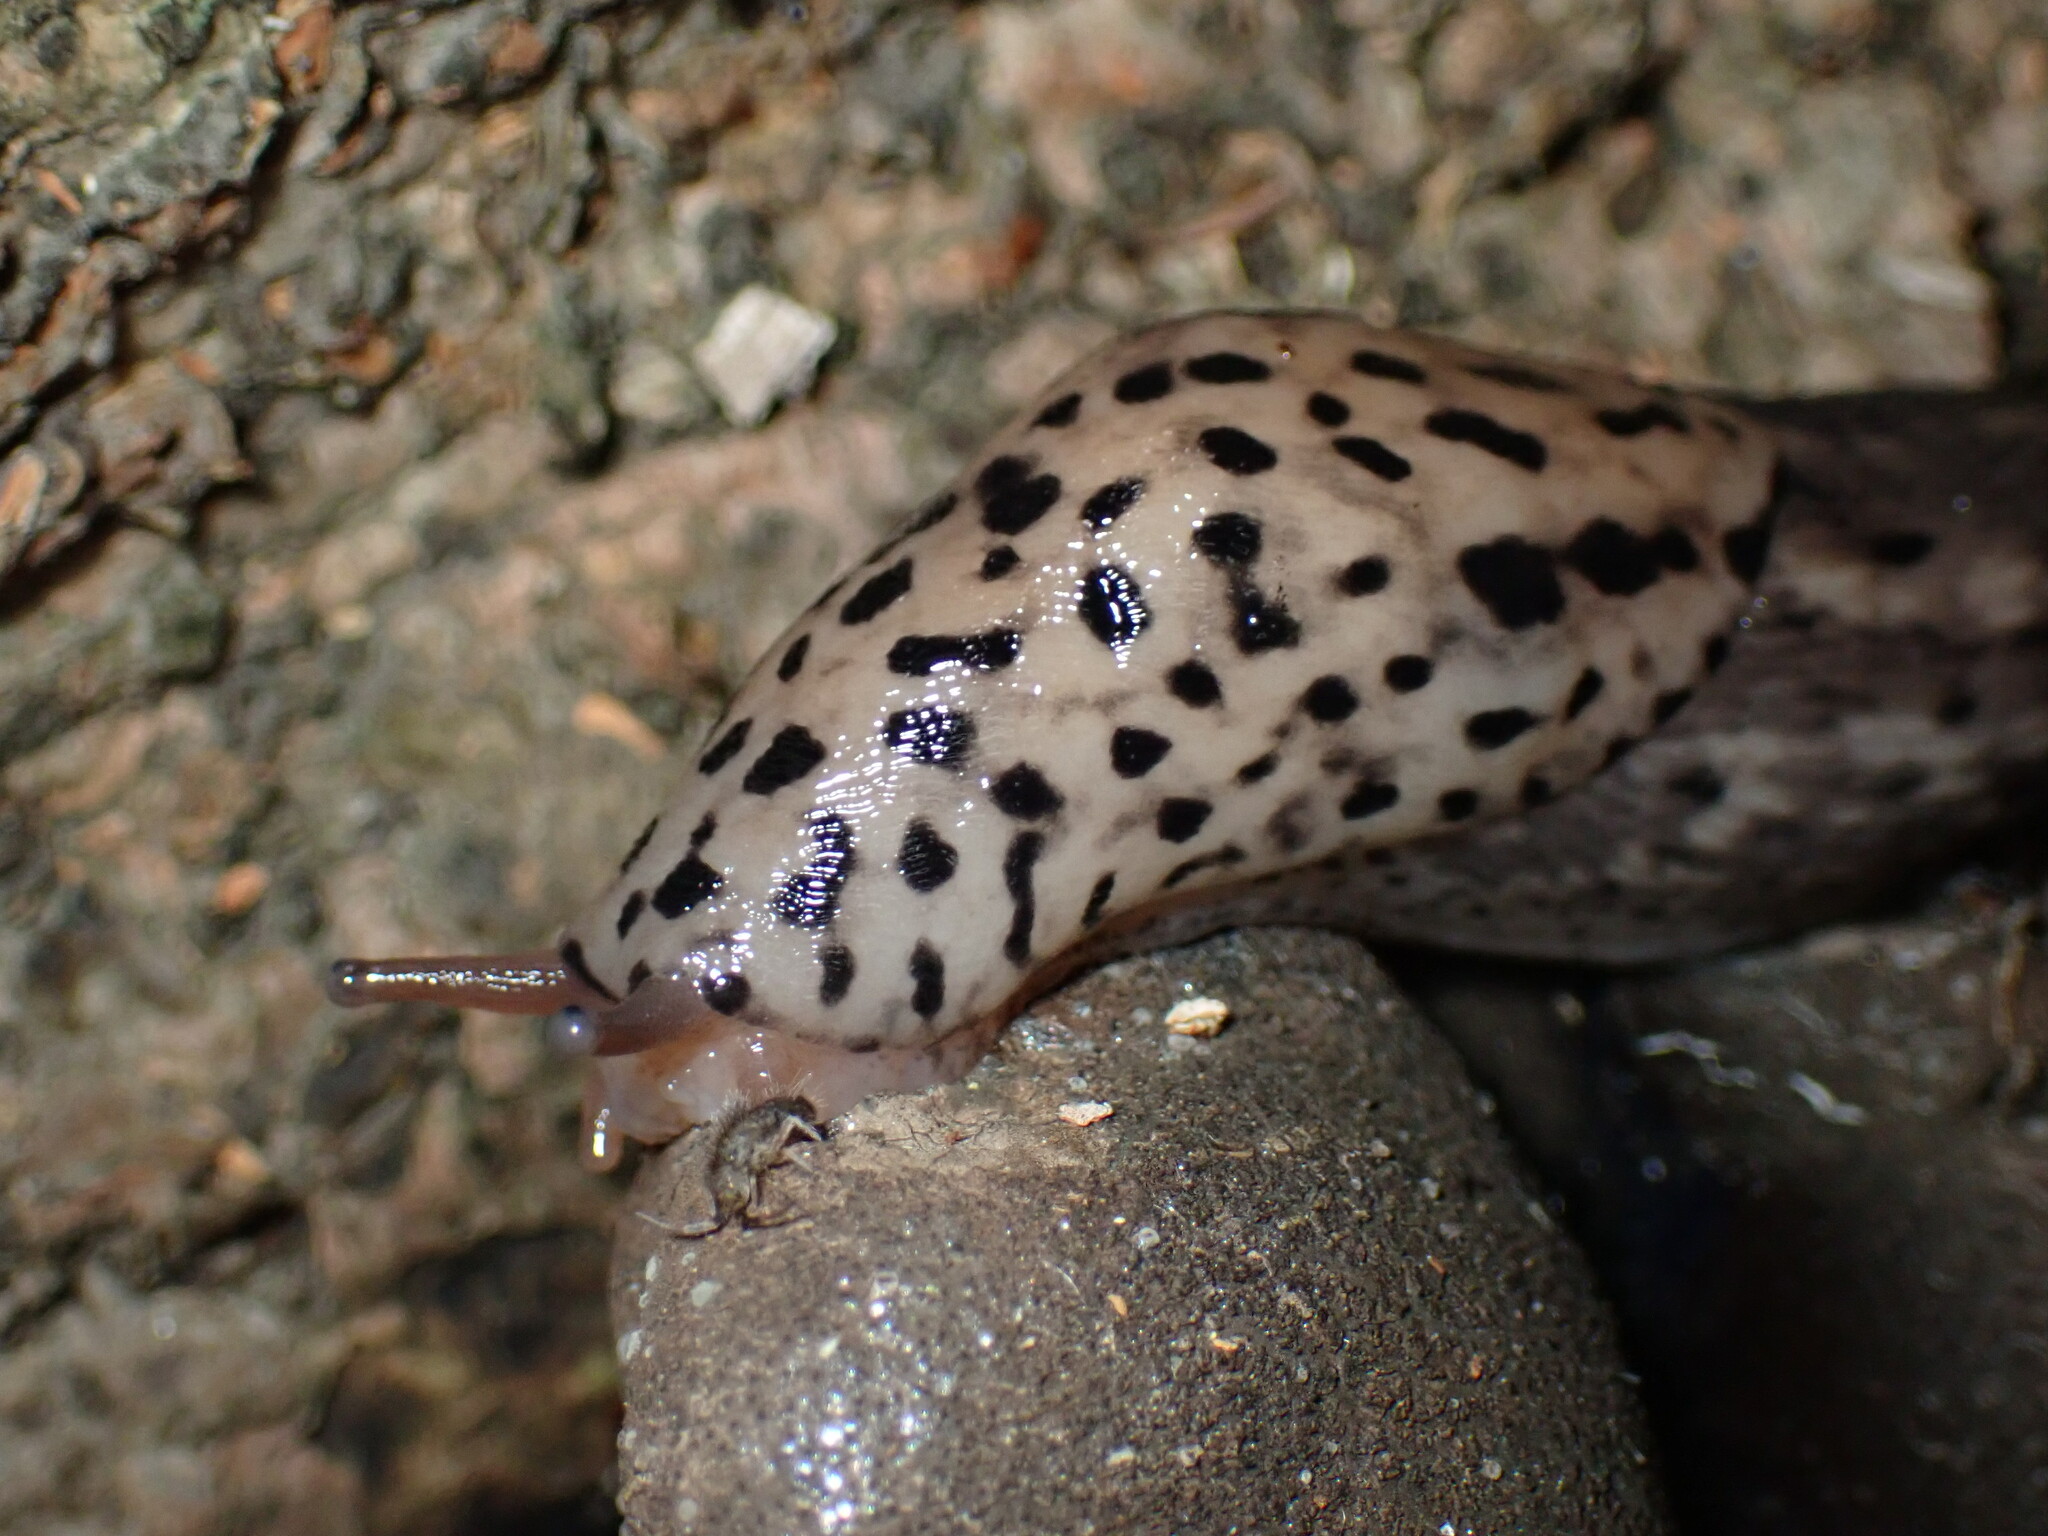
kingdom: Animalia
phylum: Mollusca
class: Gastropoda
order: Stylommatophora
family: Limacidae
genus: Limax
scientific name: Limax maximus
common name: Great grey slug
